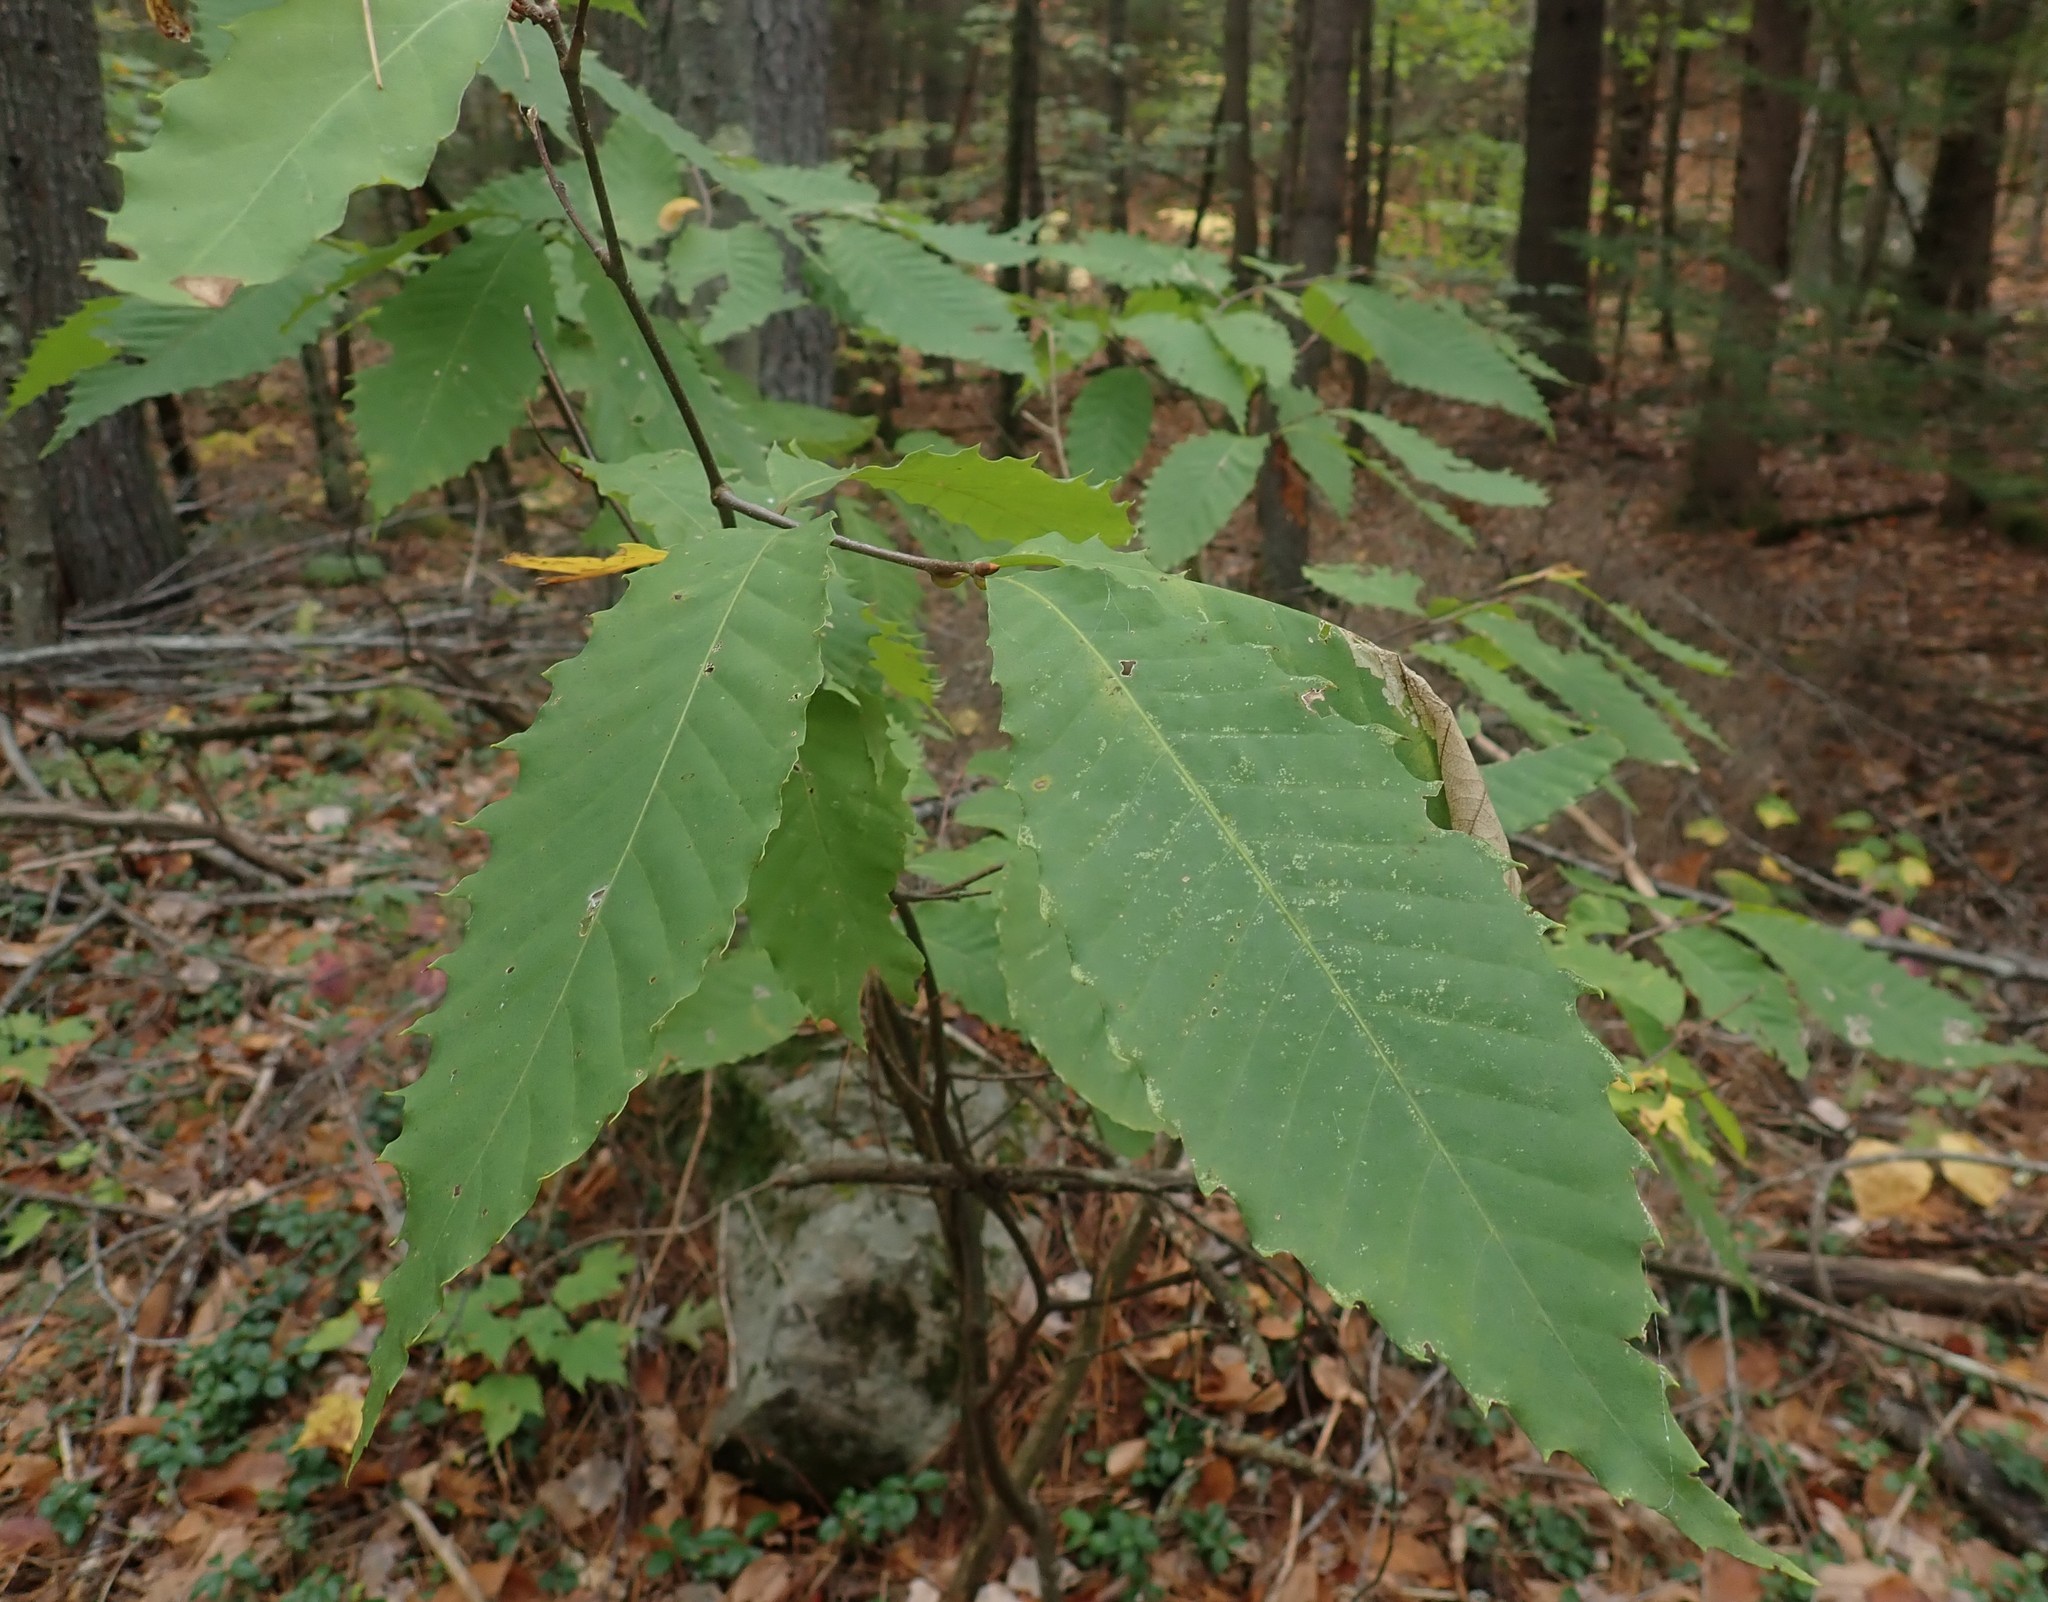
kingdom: Plantae
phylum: Tracheophyta
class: Magnoliopsida
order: Fagales
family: Fagaceae
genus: Castanea
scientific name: Castanea dentata
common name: American chestnut
